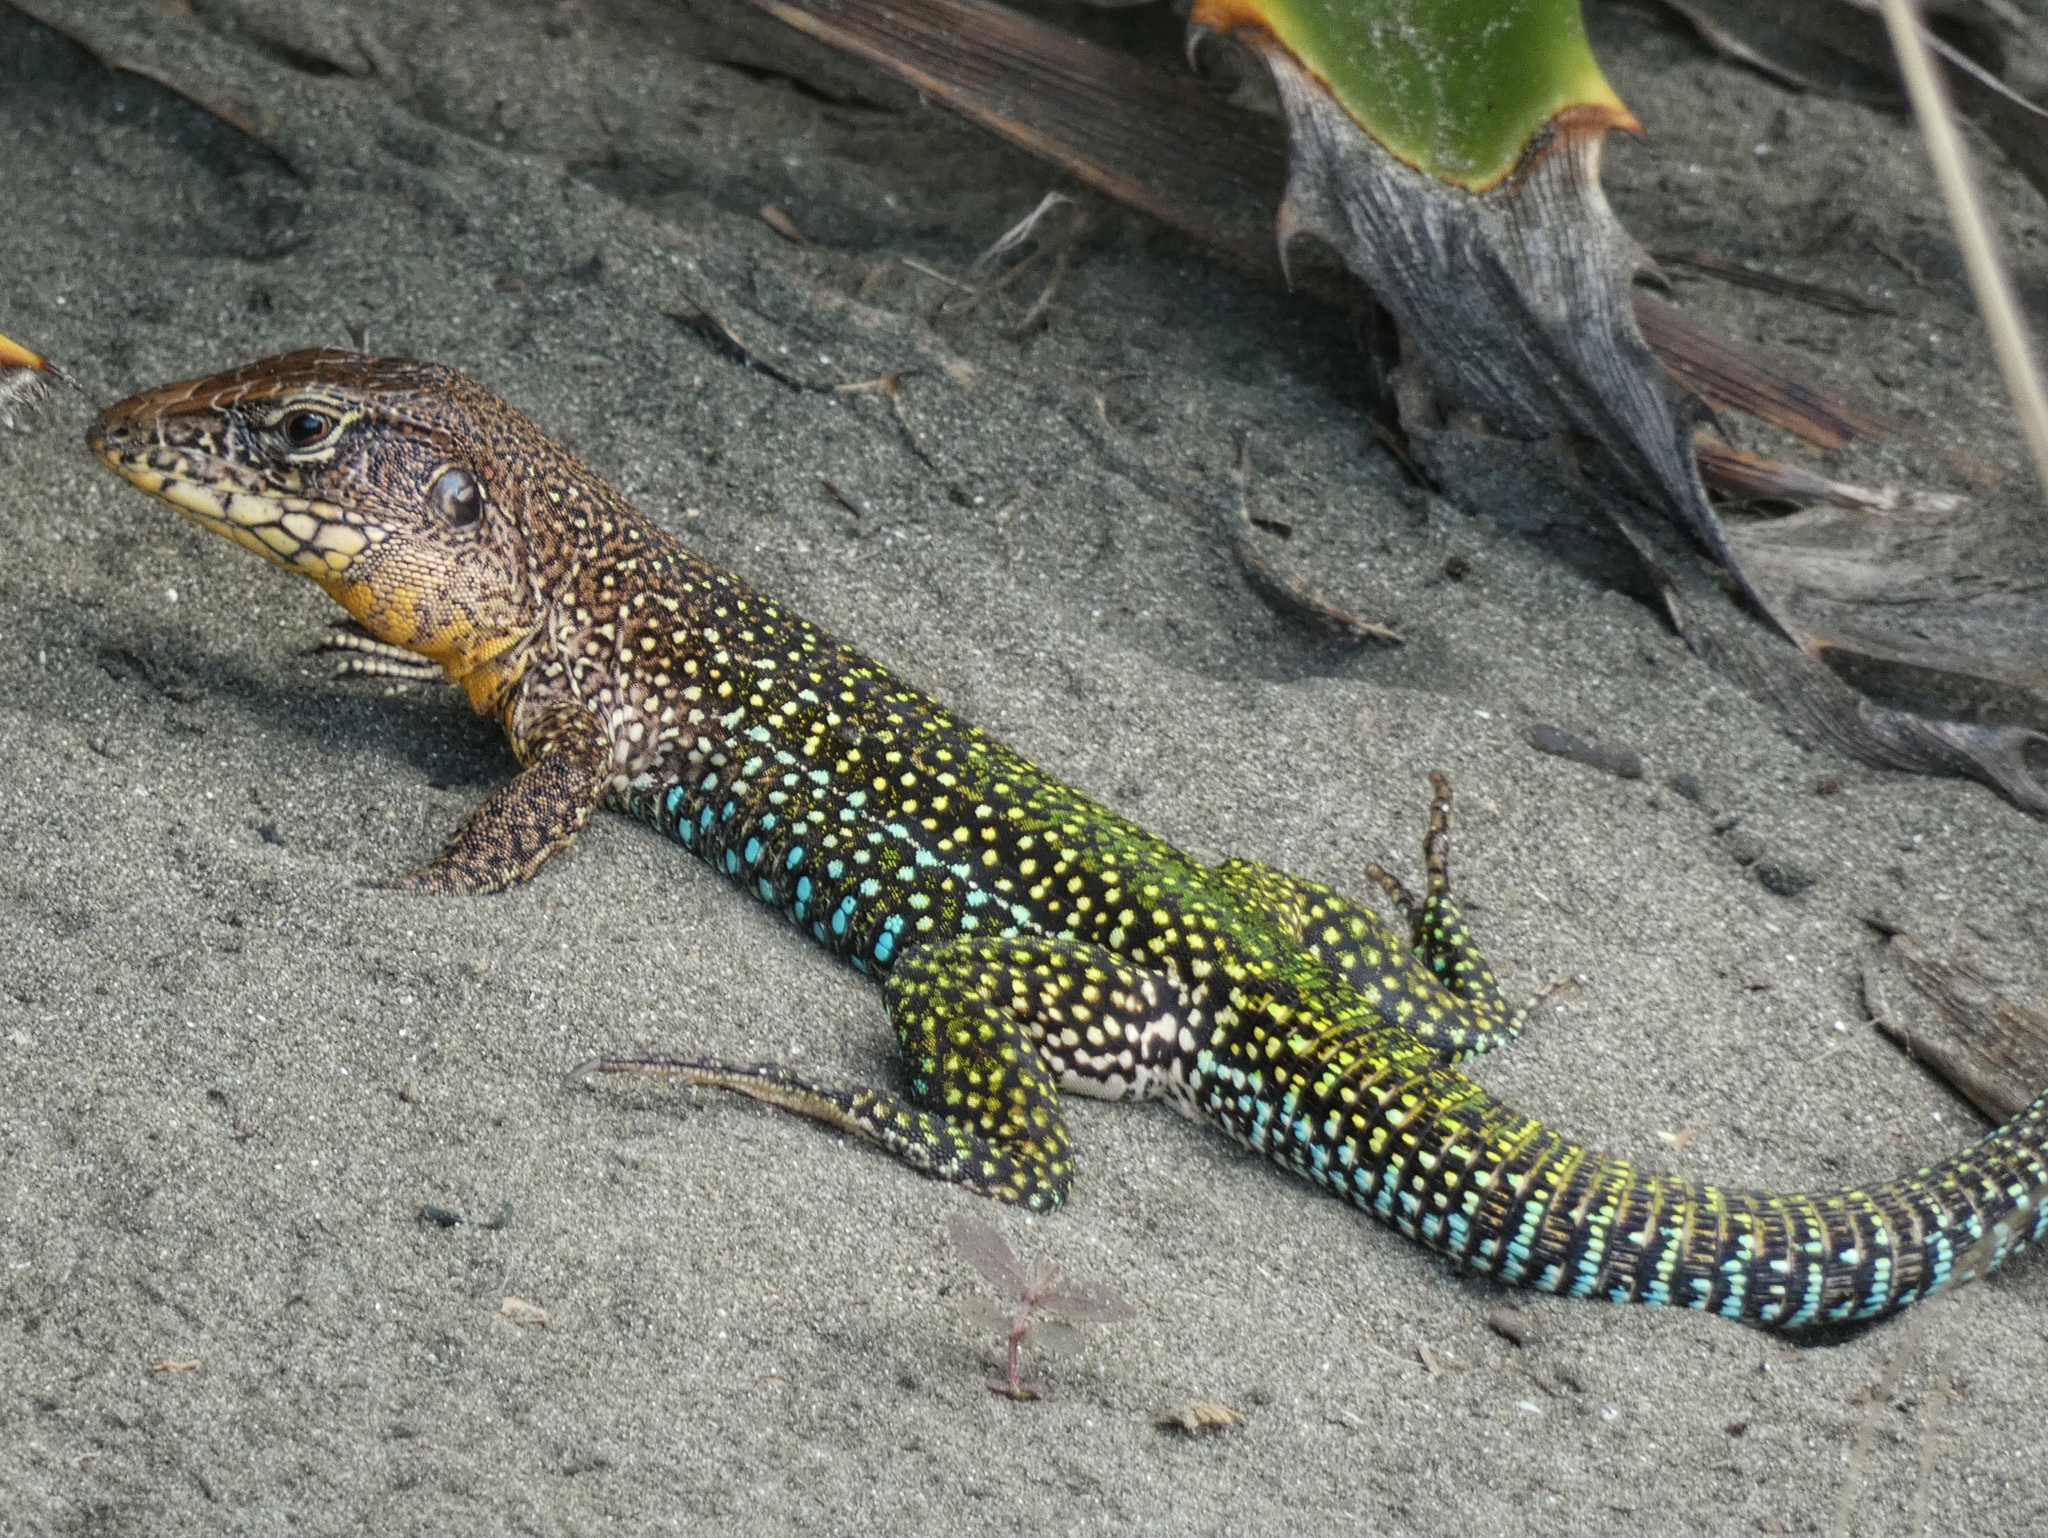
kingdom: Animalia
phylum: Chordata
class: Squamata
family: Teiidae
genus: Ameiva
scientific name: Ameiva praesignis
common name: Giant ameiva
